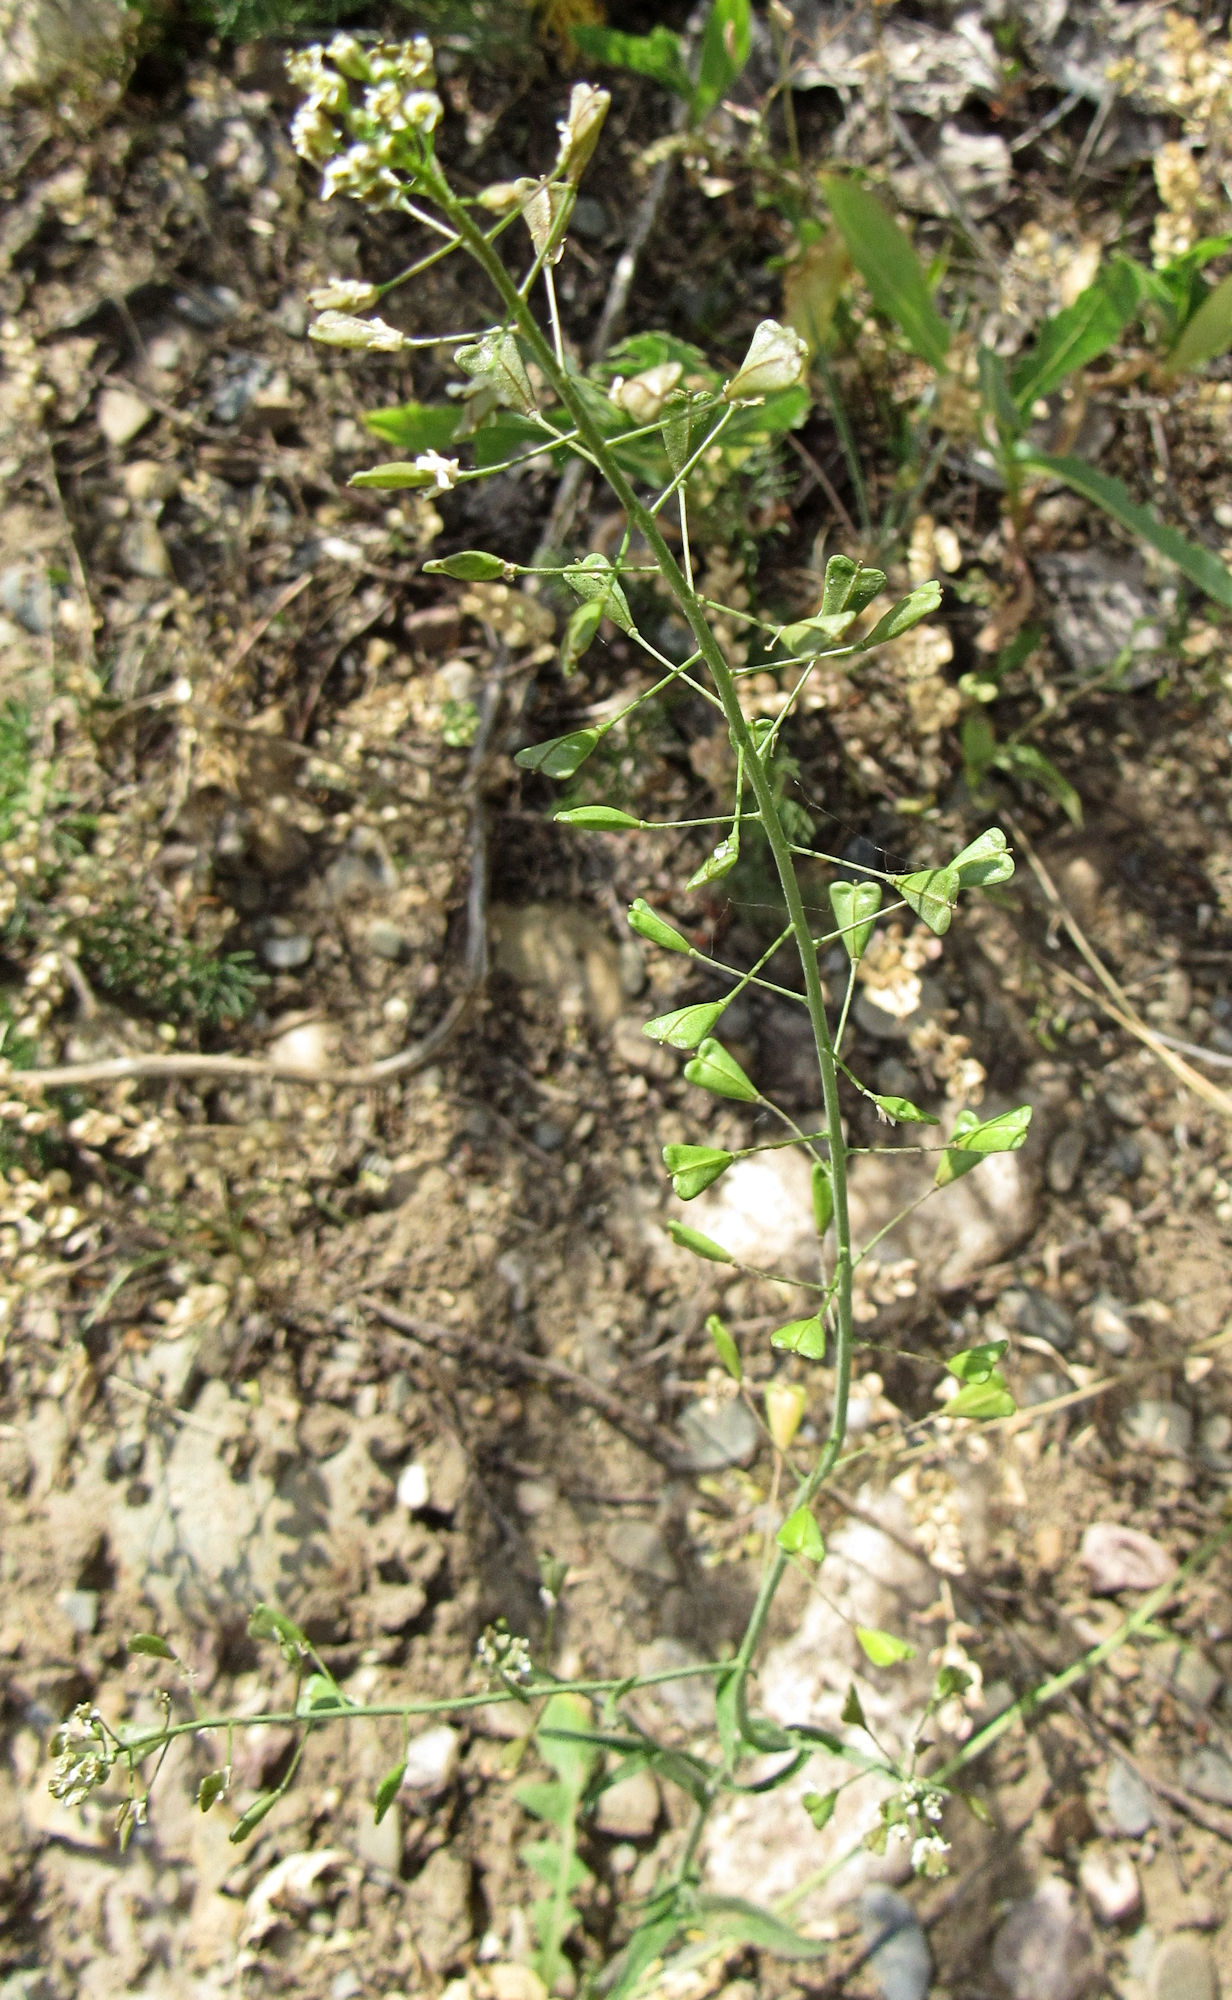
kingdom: Plantae
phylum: Tracheophyta
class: Magnoliopsida
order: Brassicales
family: Brassicaceae
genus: Capsella
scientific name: Capsella bursa-pastoris
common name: Shepherd's purse
